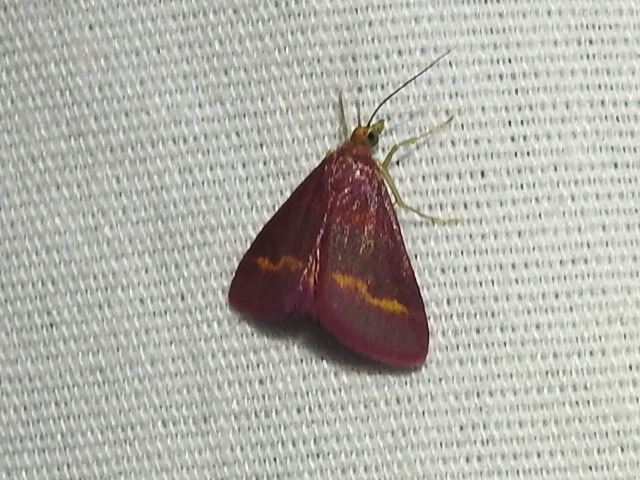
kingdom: Animalia
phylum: Arthropoda
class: Insecta
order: Lepidoptera
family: Crambidae
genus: Pyrausta
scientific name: Pyrausta tyralis
